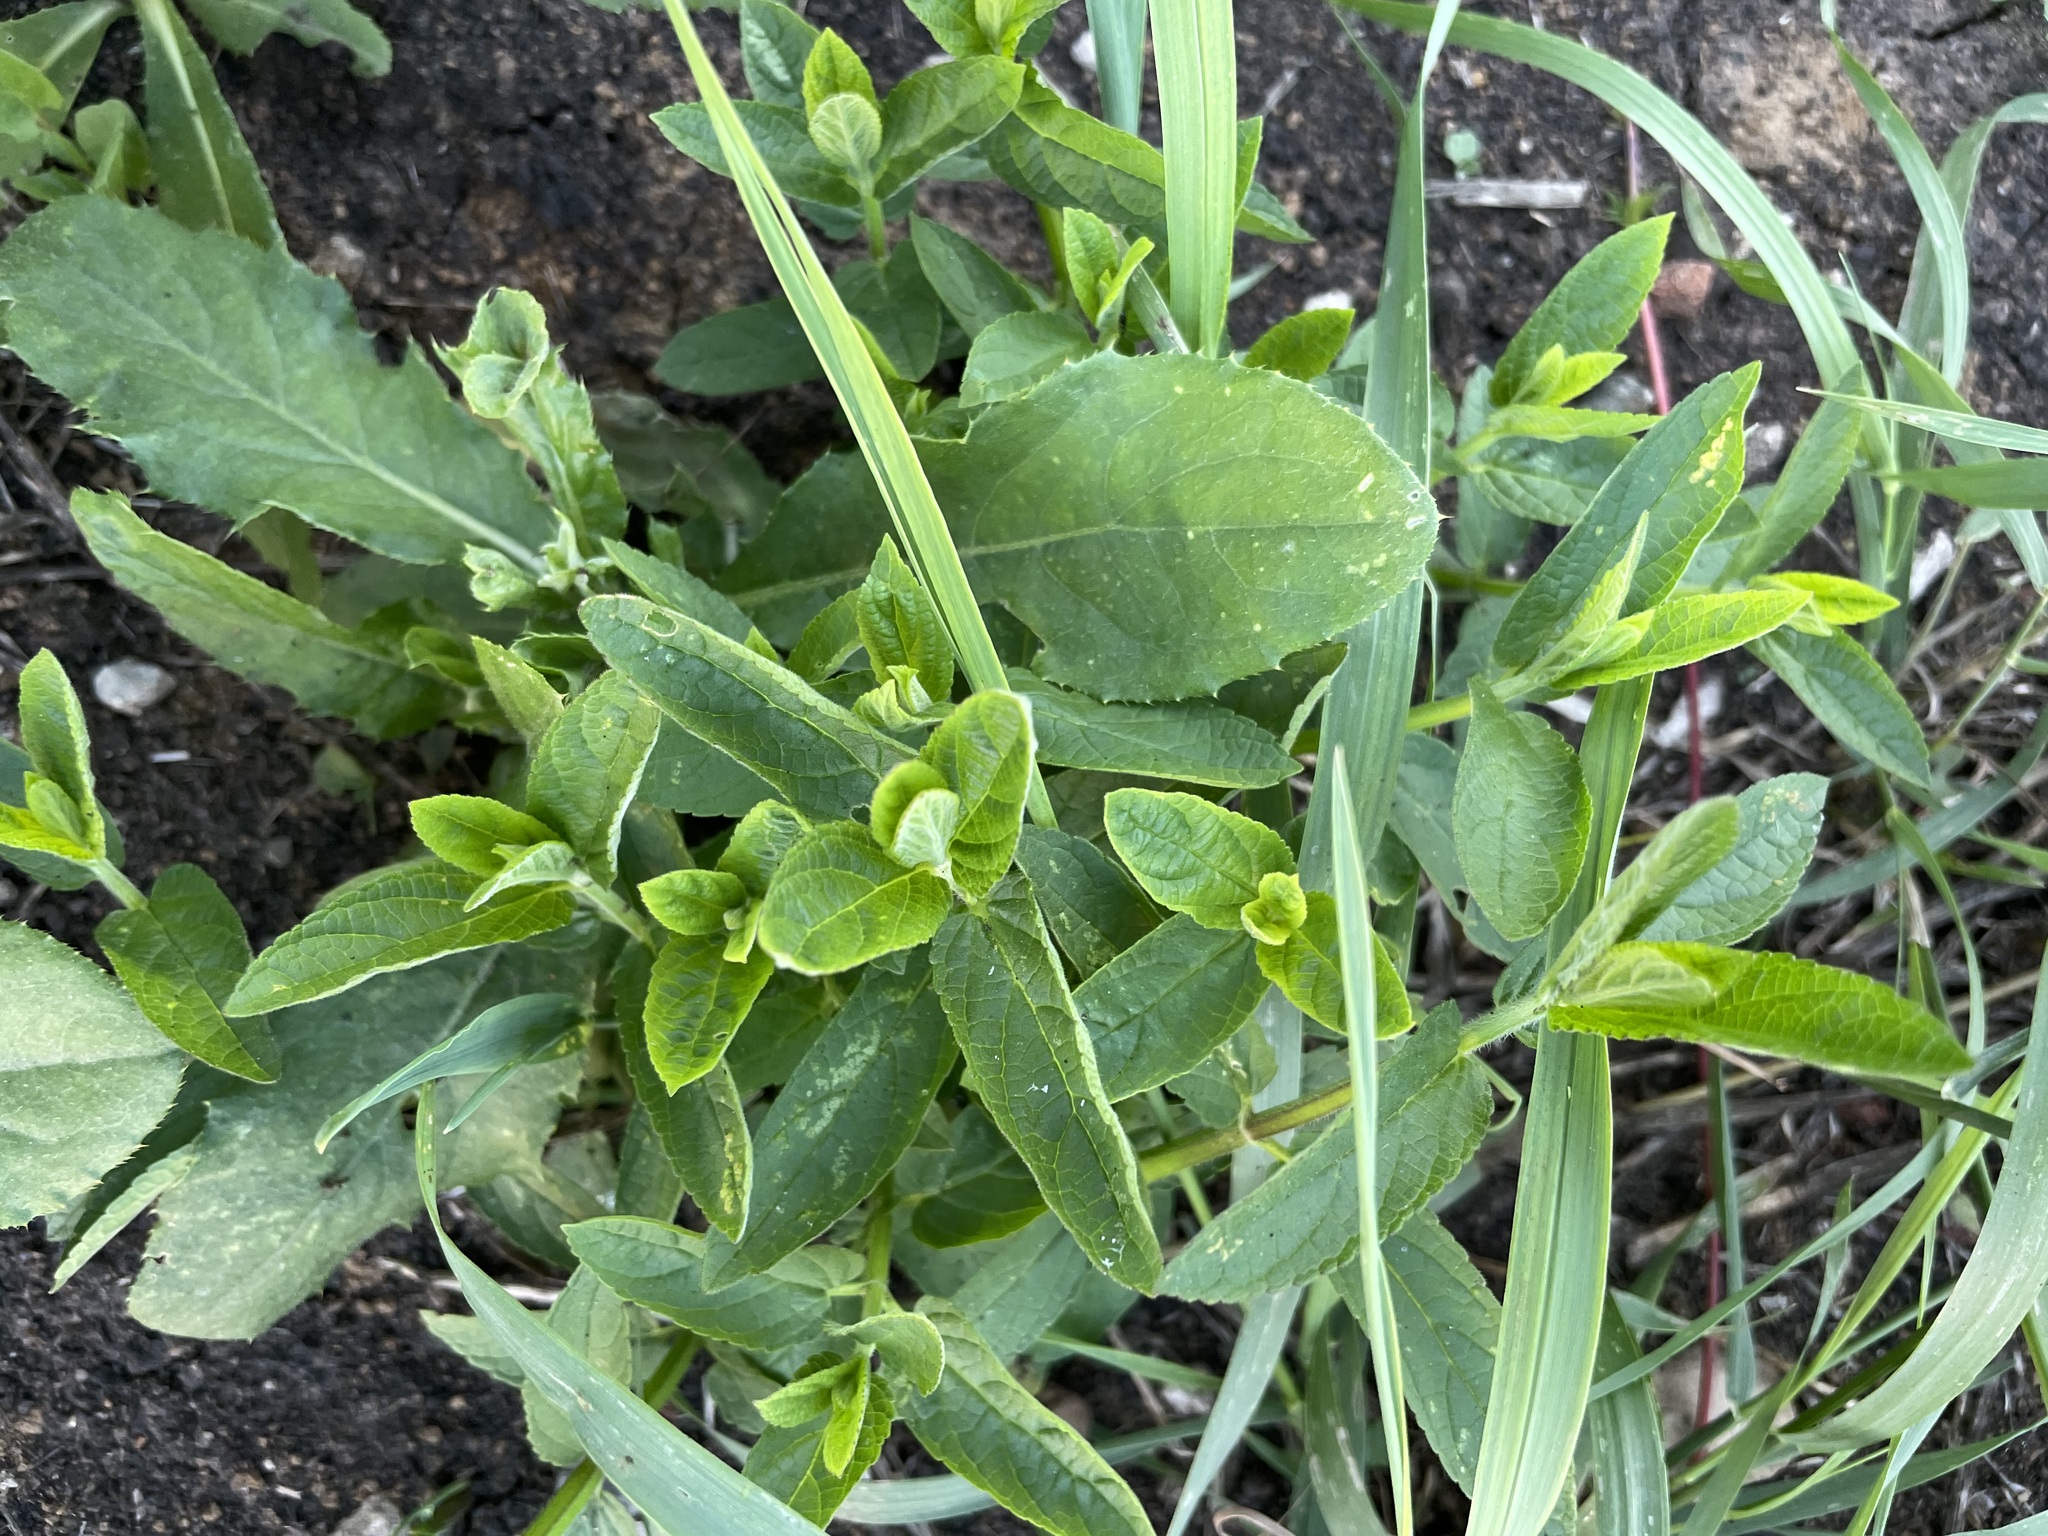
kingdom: Plantae
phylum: Tracheophyta
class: Magnoliopsida
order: Lamiales
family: Lamiaceae
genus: Stachys
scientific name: Stachys palustris
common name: Marsh woundwort
